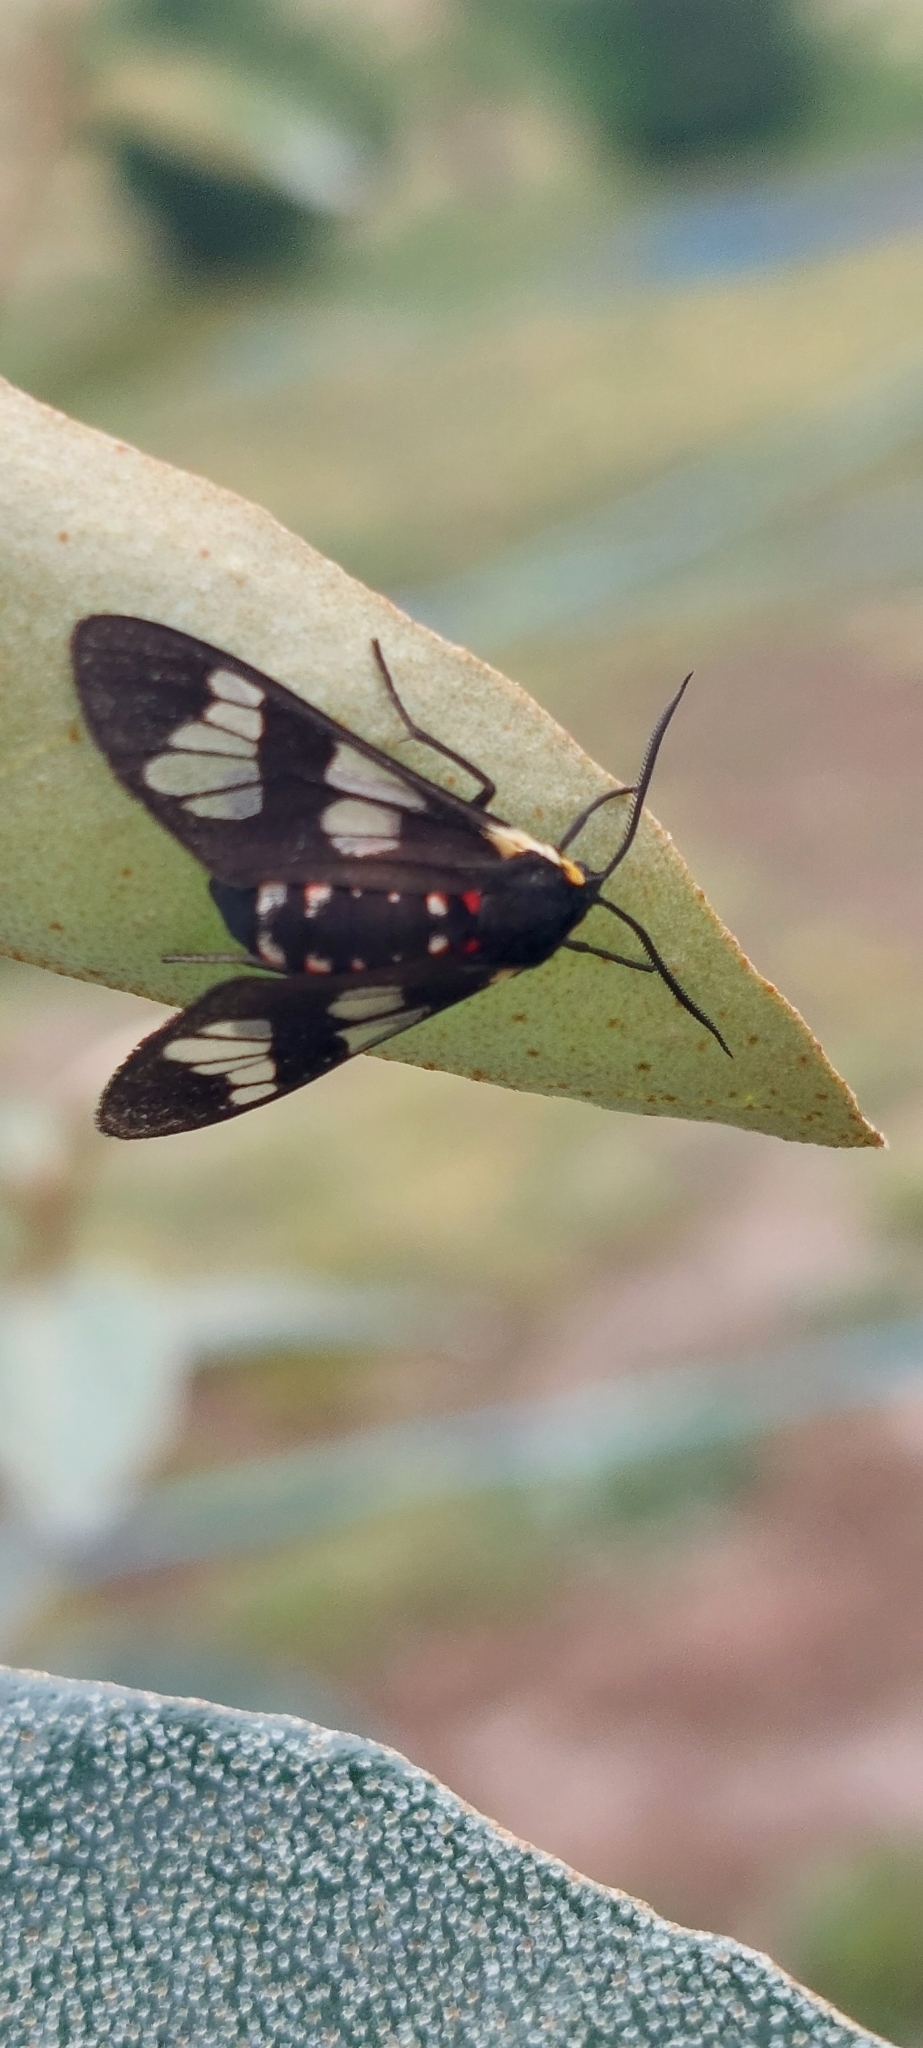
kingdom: Animalia
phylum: Arthropoda
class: Insecta
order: Lepidoptera
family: Erebidae
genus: Eurata
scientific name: Eurata hermione
